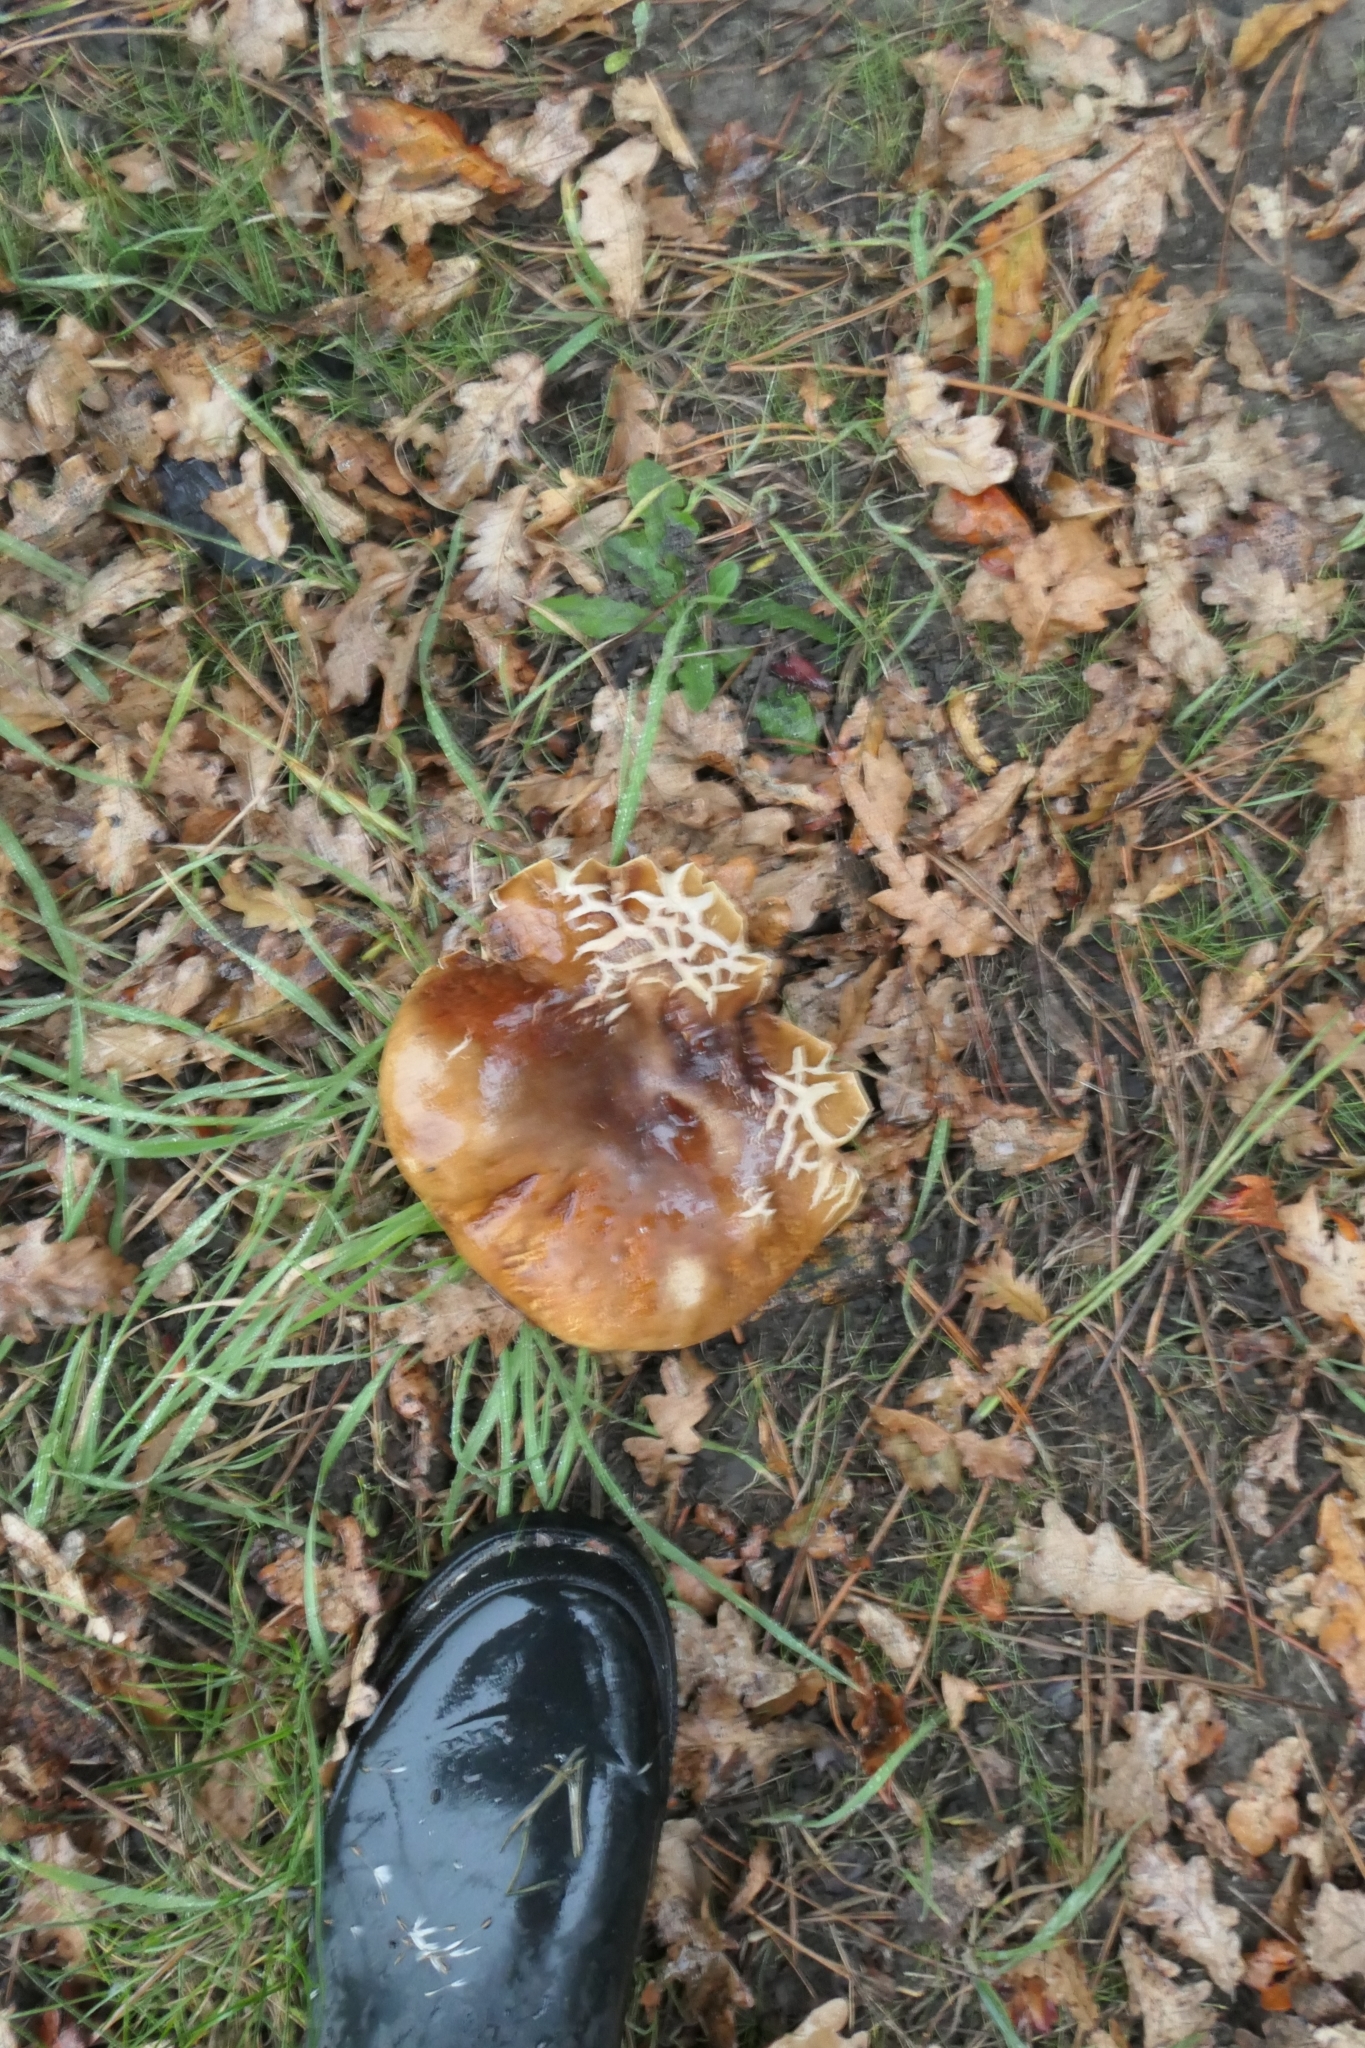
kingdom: Fungi
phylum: Basidiomycota
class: Agaricomycetes
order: Boletales
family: Boletaceae
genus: Boletus
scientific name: Boletus edulis
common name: Cep
